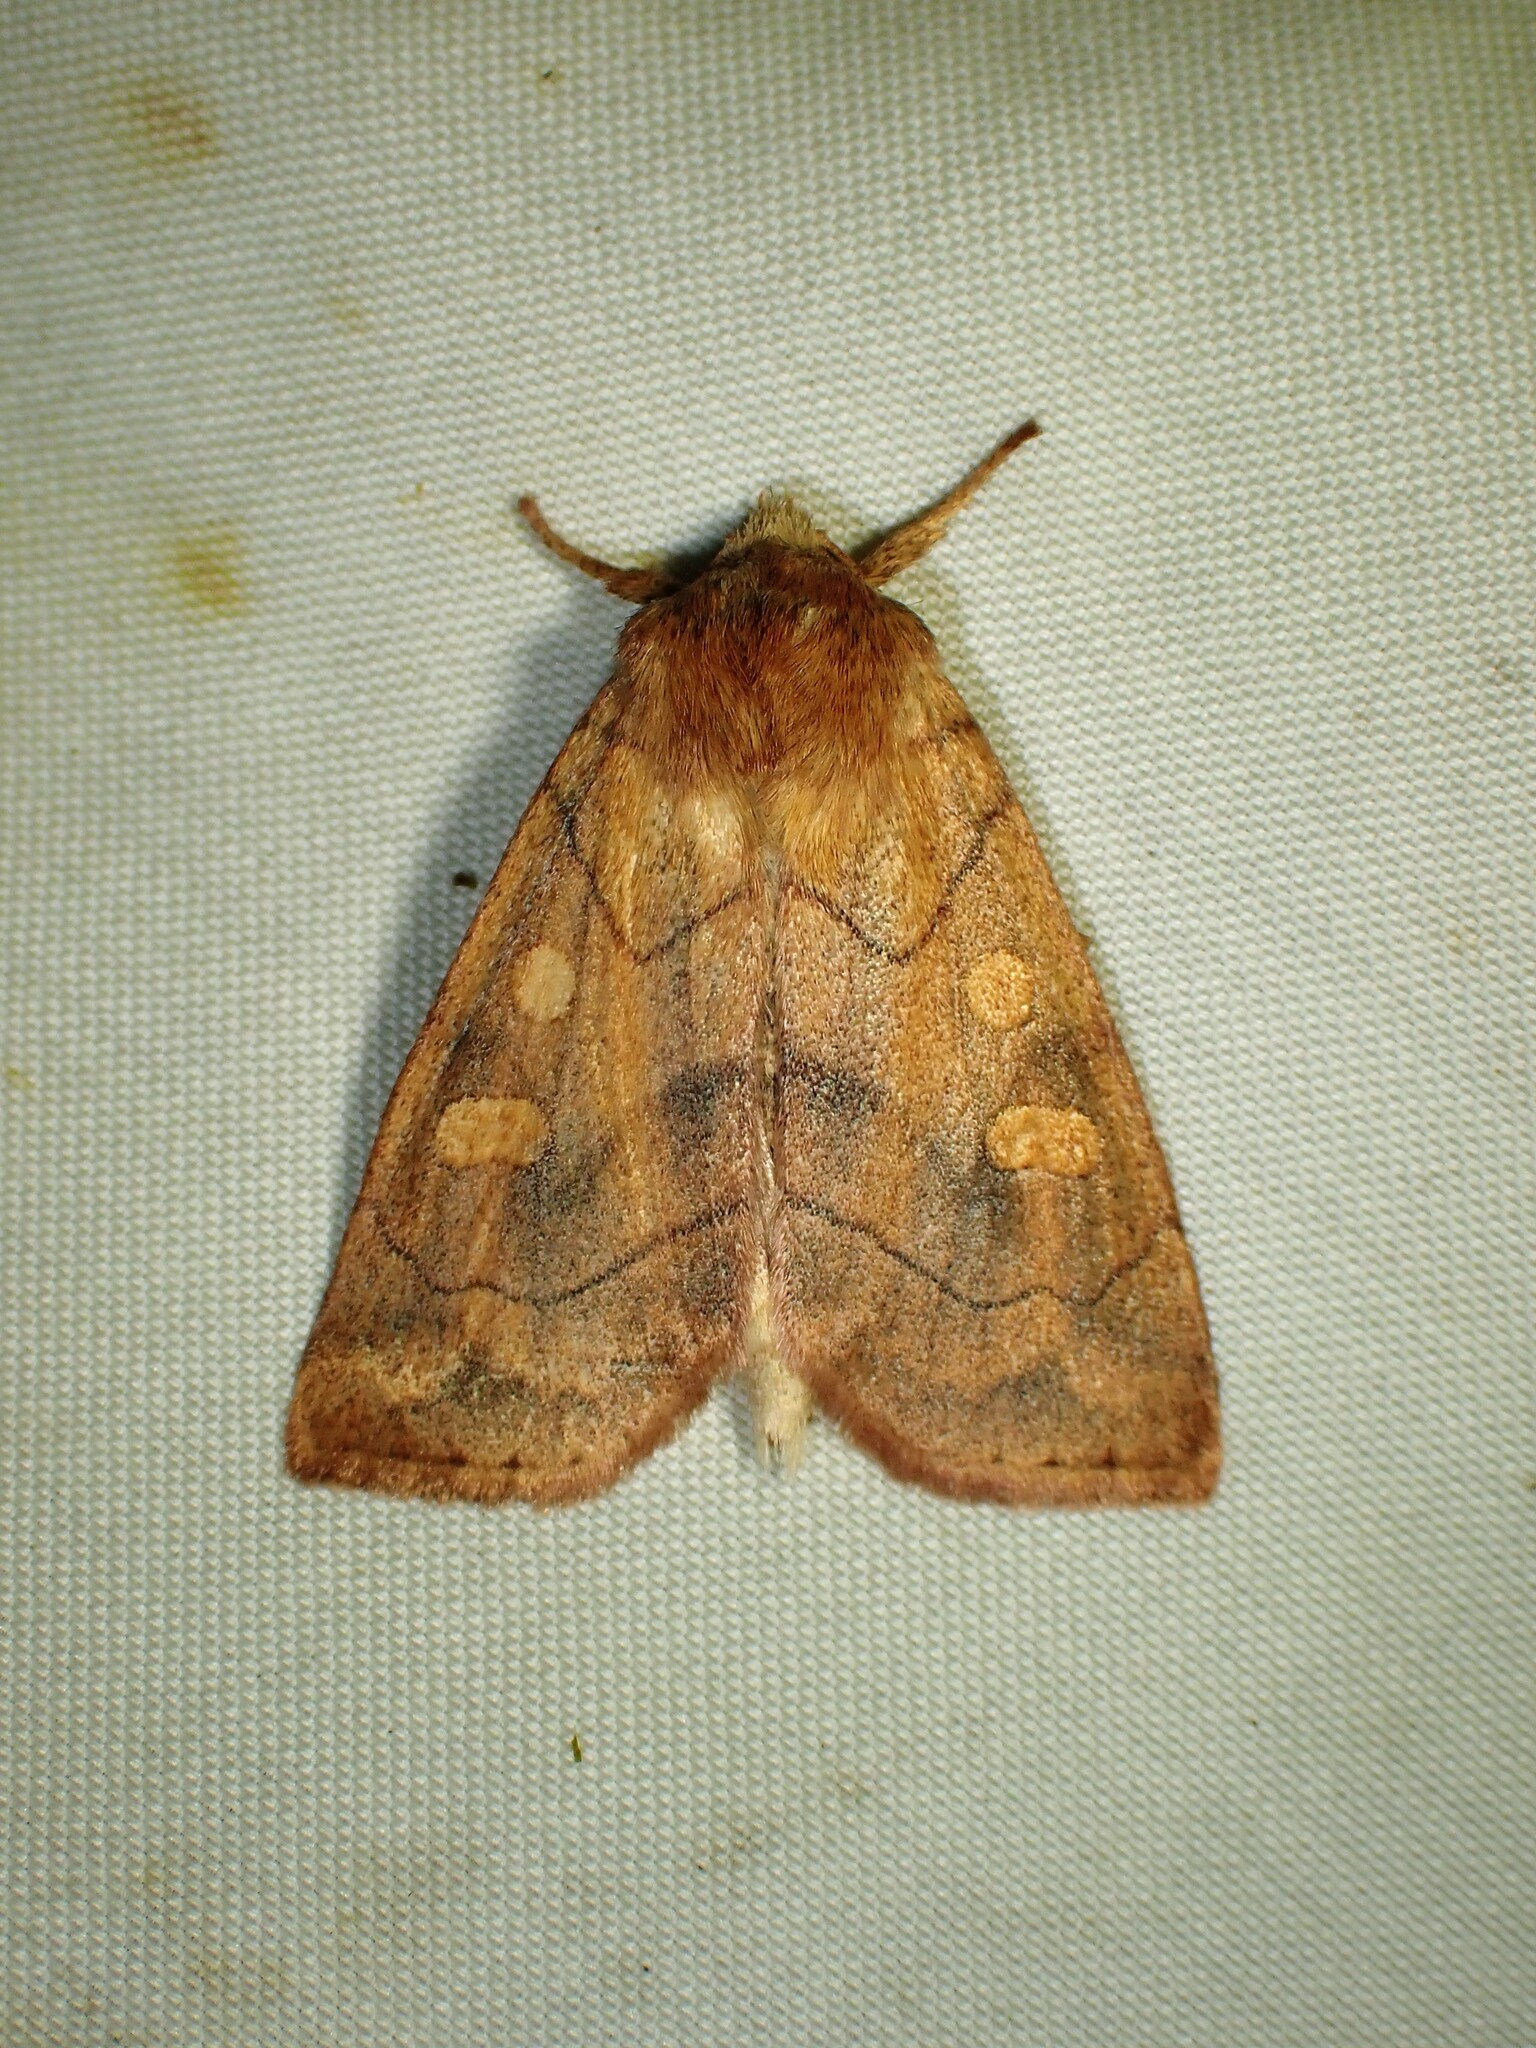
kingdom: Animalia
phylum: Arthropoda
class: Insecta
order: Lepidoptera
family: Noctuidae
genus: Enargia
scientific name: Enargia decolor
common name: Aspen twoleaf tier moth
